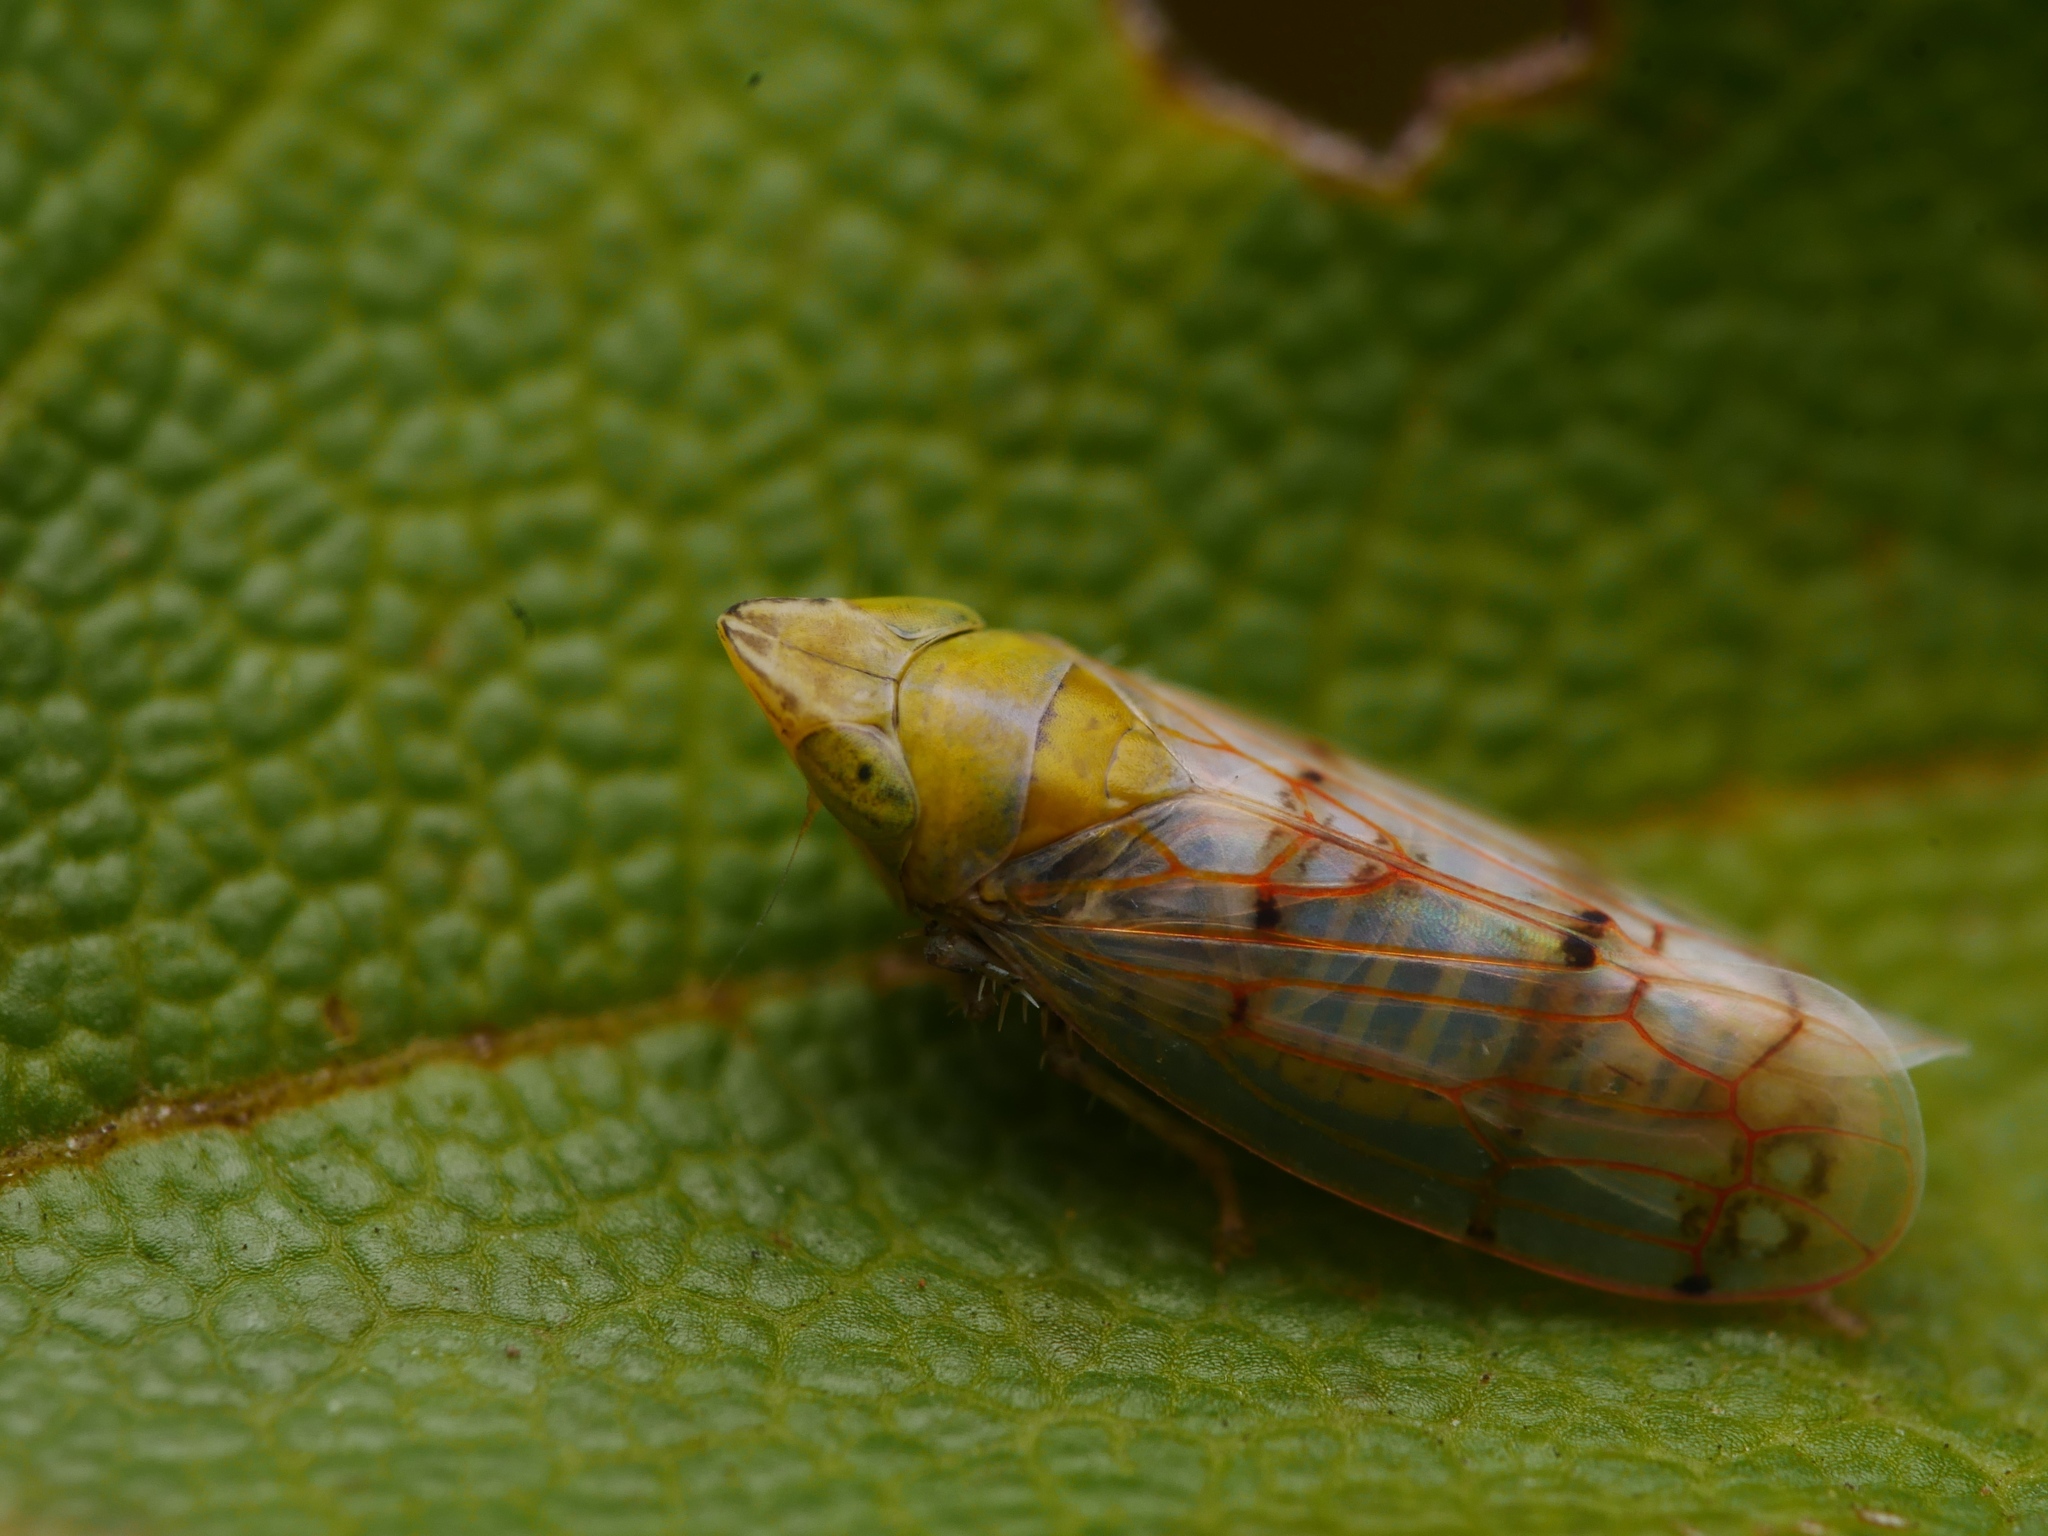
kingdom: Animalia
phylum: Arthropoda
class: Insecta
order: Hemiptera
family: Cicadellidae
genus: Japananus
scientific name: Japananus hyalinus
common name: The japanese maple leafhopper
